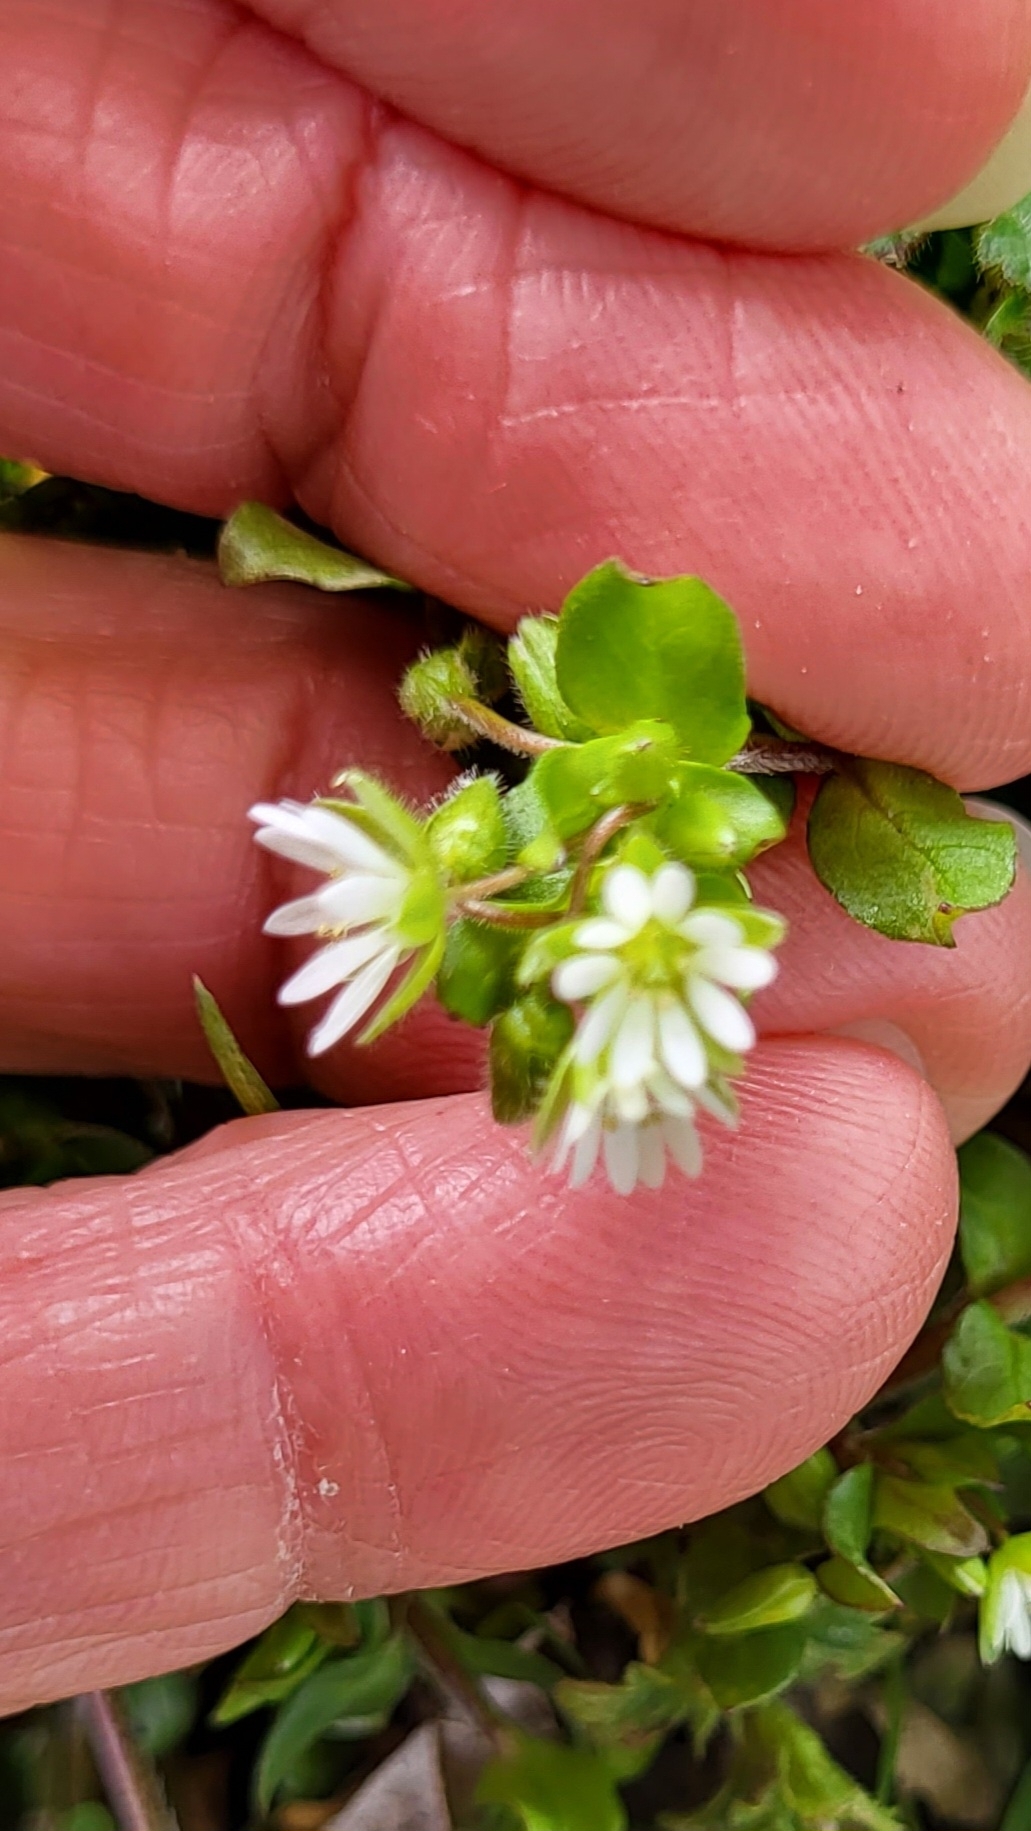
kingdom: Plantae
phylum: Tracheophyta
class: Magnoliopsida
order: Caryophyllales
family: Caryophyllaceae
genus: Stellaria
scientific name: Stellaria media
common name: Common chickweed
